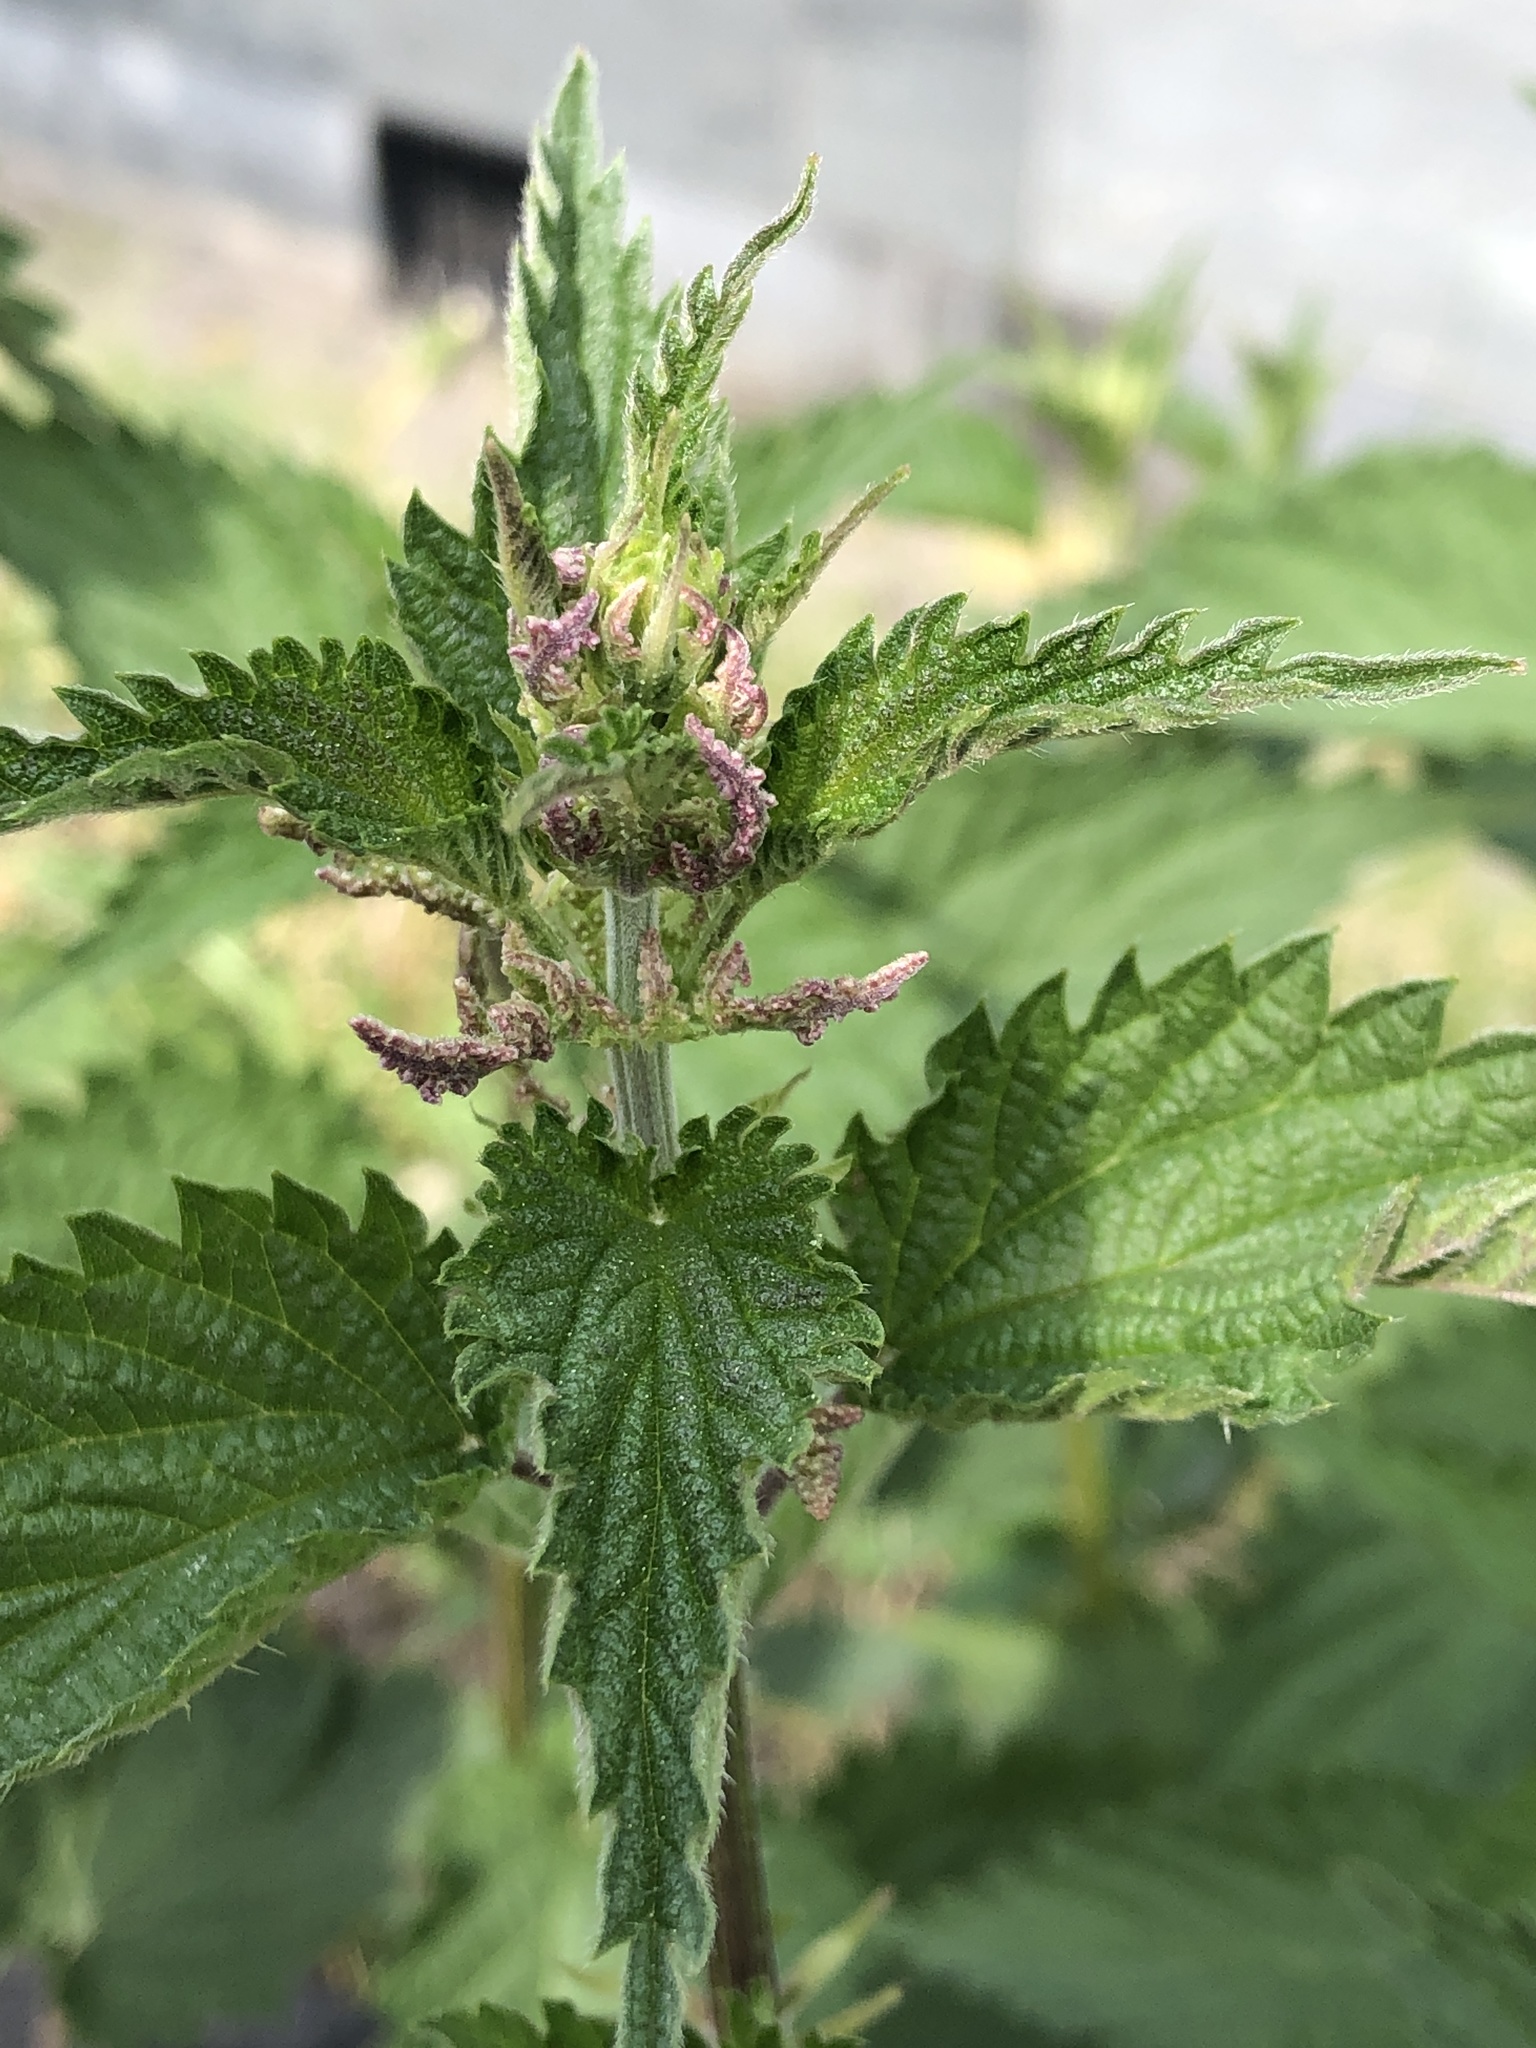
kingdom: Plantae
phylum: Tracheophyta
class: Magnoliopsida
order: Rosales
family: Urticaceae
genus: Urtica
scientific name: Urtica dioica
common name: Common nettle
